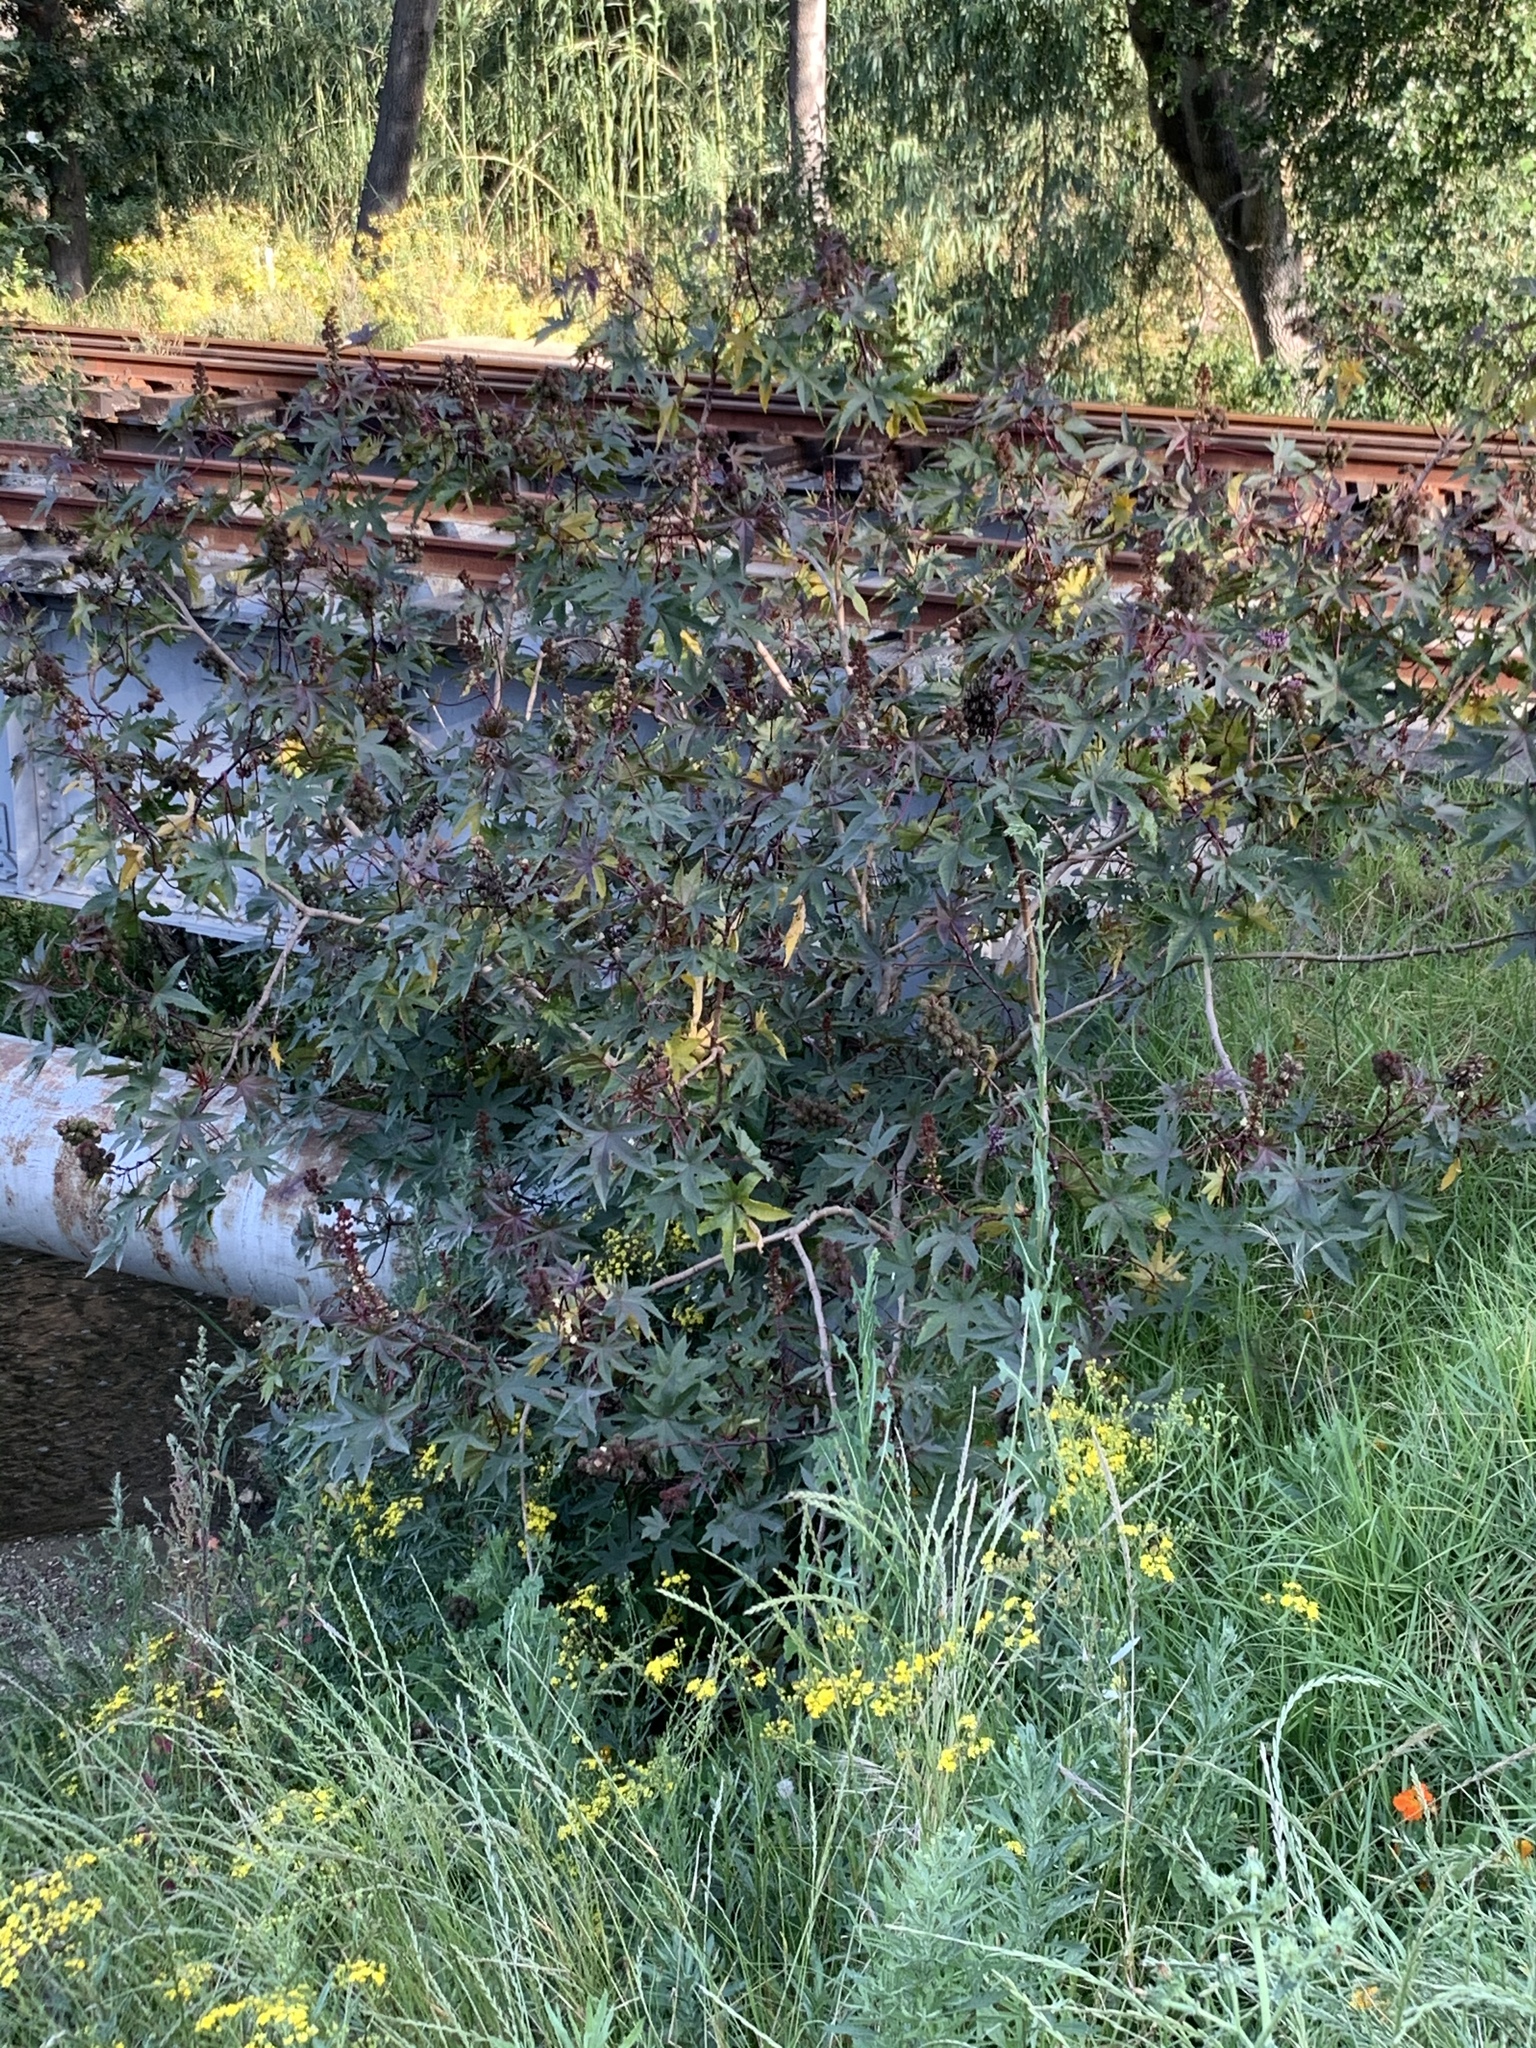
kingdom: Plantae
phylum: Tracheophyta
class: Magnoliopsida
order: Malpighiales
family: Euphorbiaceae
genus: Ricinus
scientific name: Ricinus communis
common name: Castor-oil-plant
